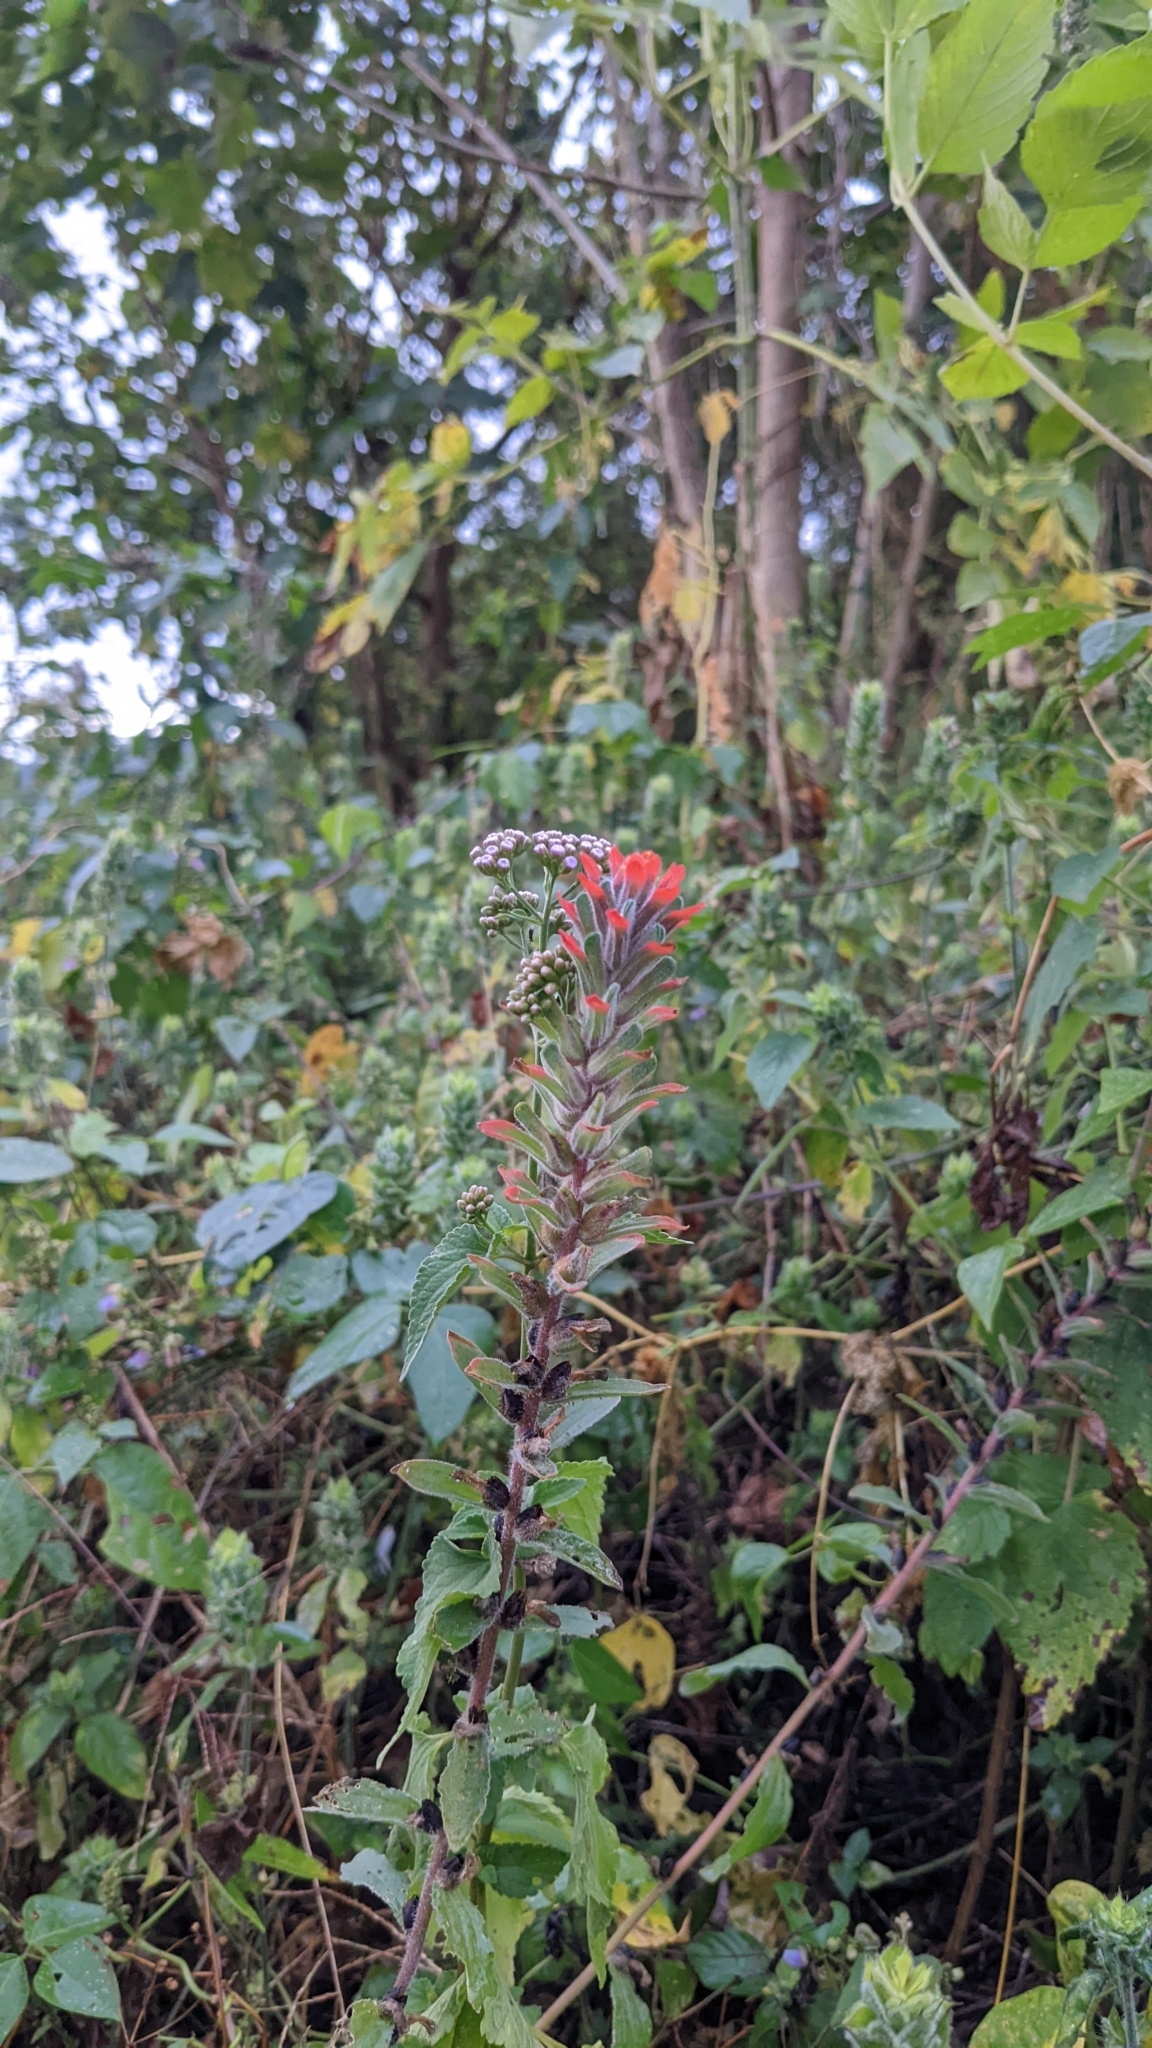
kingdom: Plantae
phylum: Tracheophyta
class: Magnoliopsida
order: Lamiales
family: Orobanchaceae
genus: Castilleja
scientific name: Castilleja arvensis
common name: Indian paintbrush
